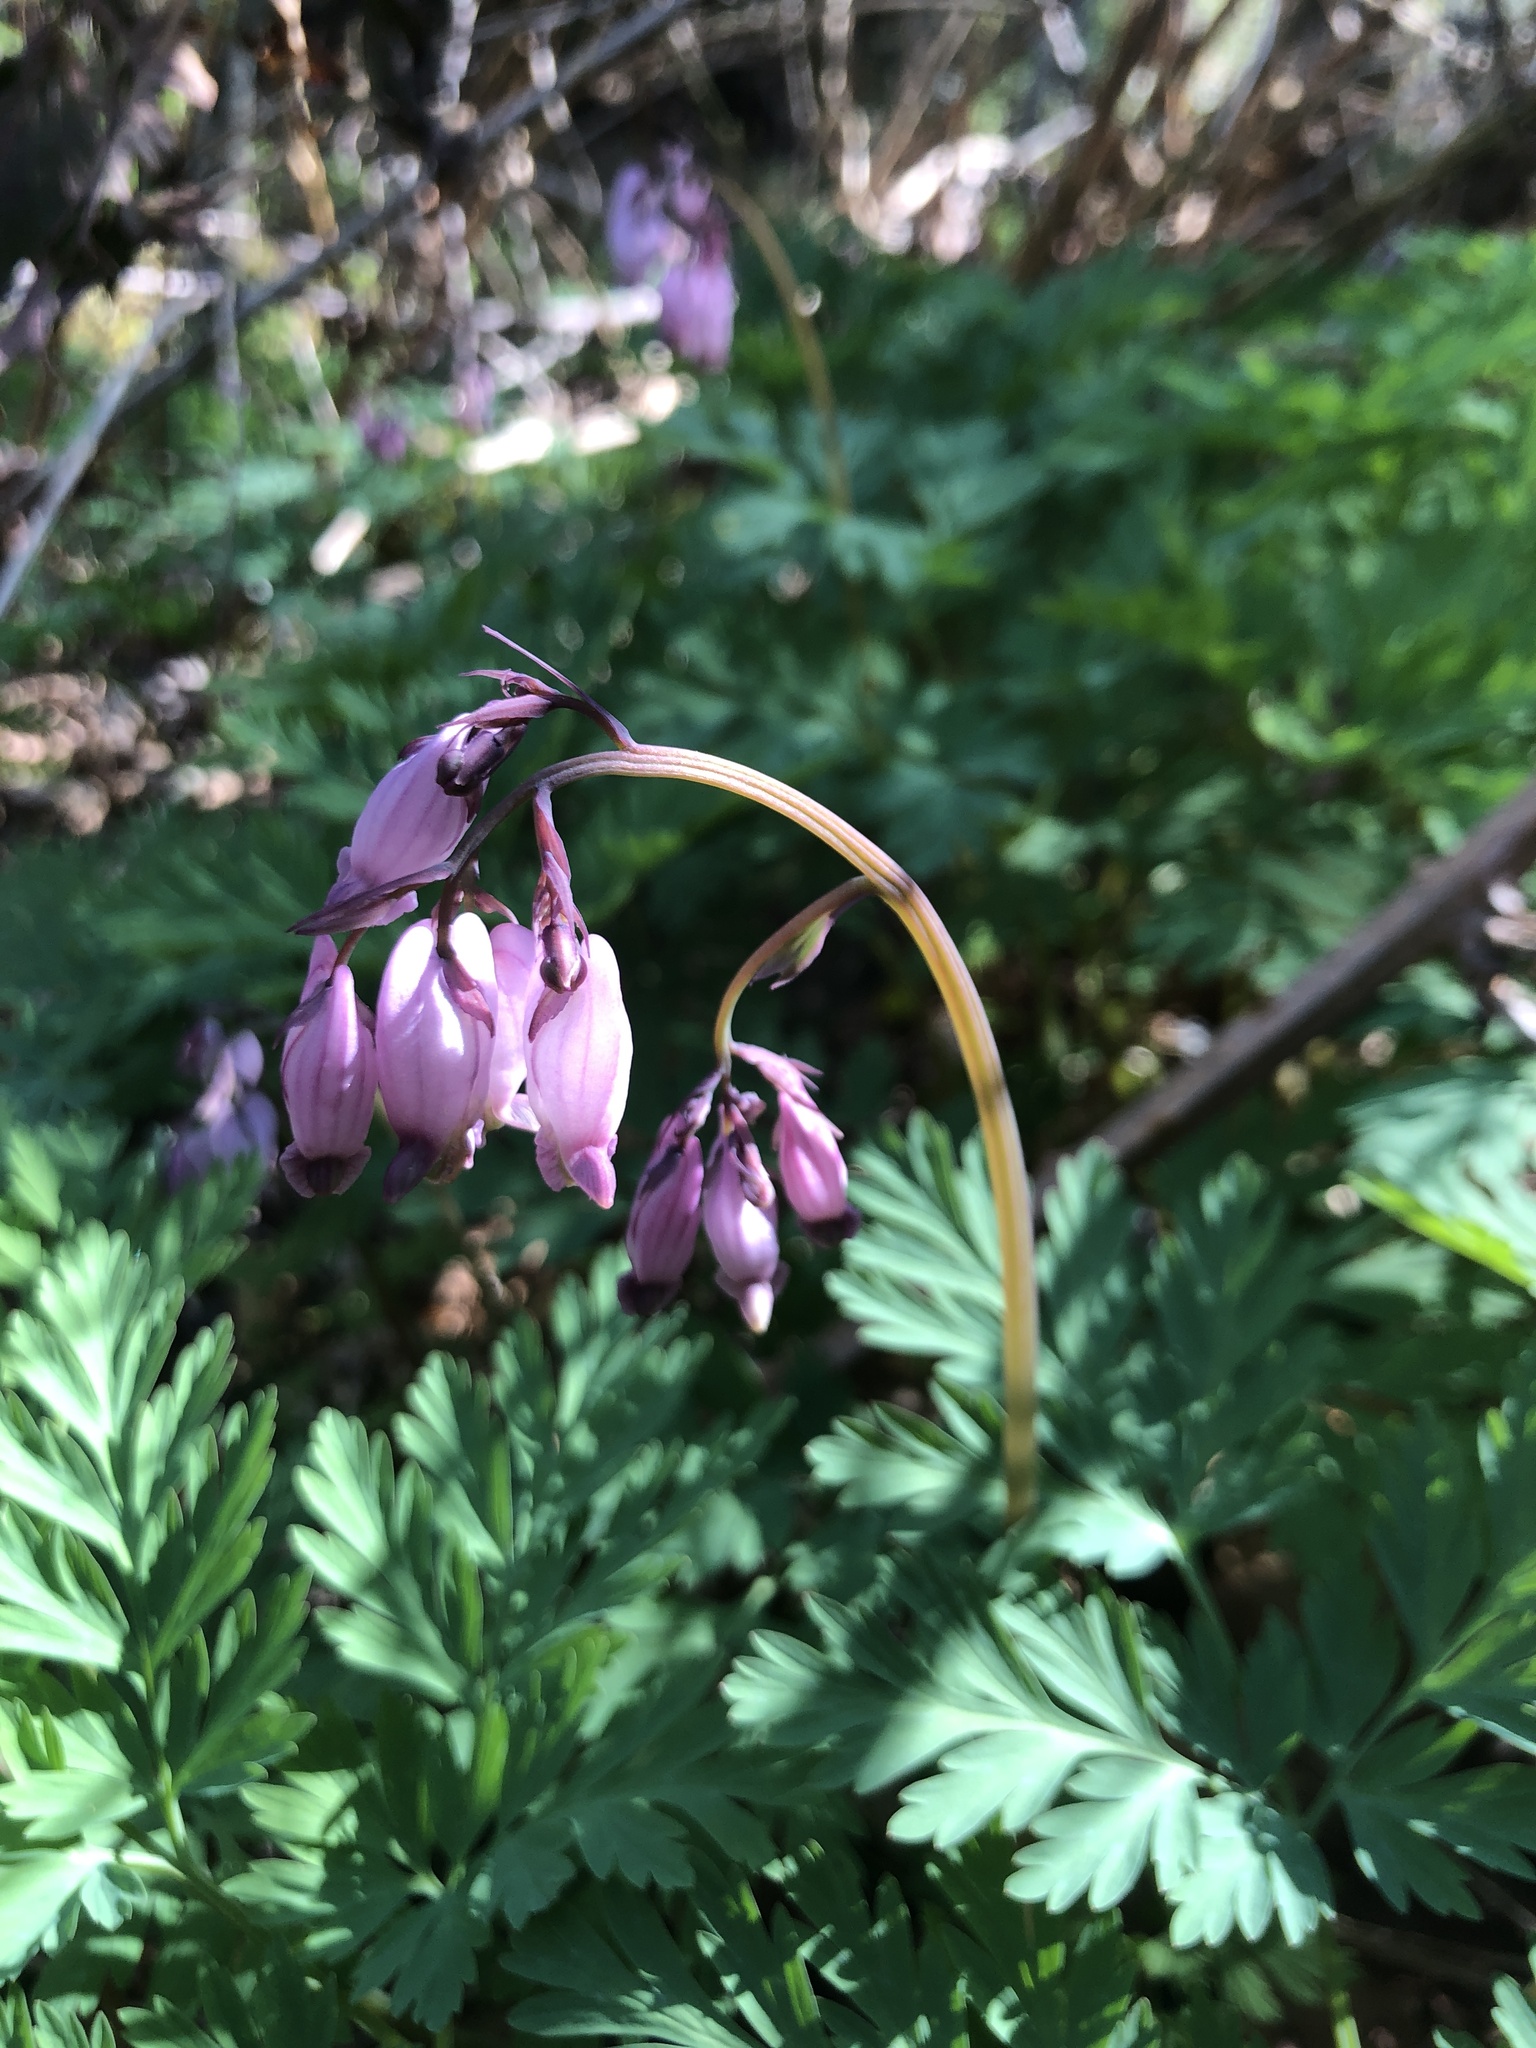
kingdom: Plantae
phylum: Tracheophyta
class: Magnoliopsida
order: Ranunculales
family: Papaveraceae
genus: Dicentra
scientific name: Dicentra formosa
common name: Bleeding-heart
